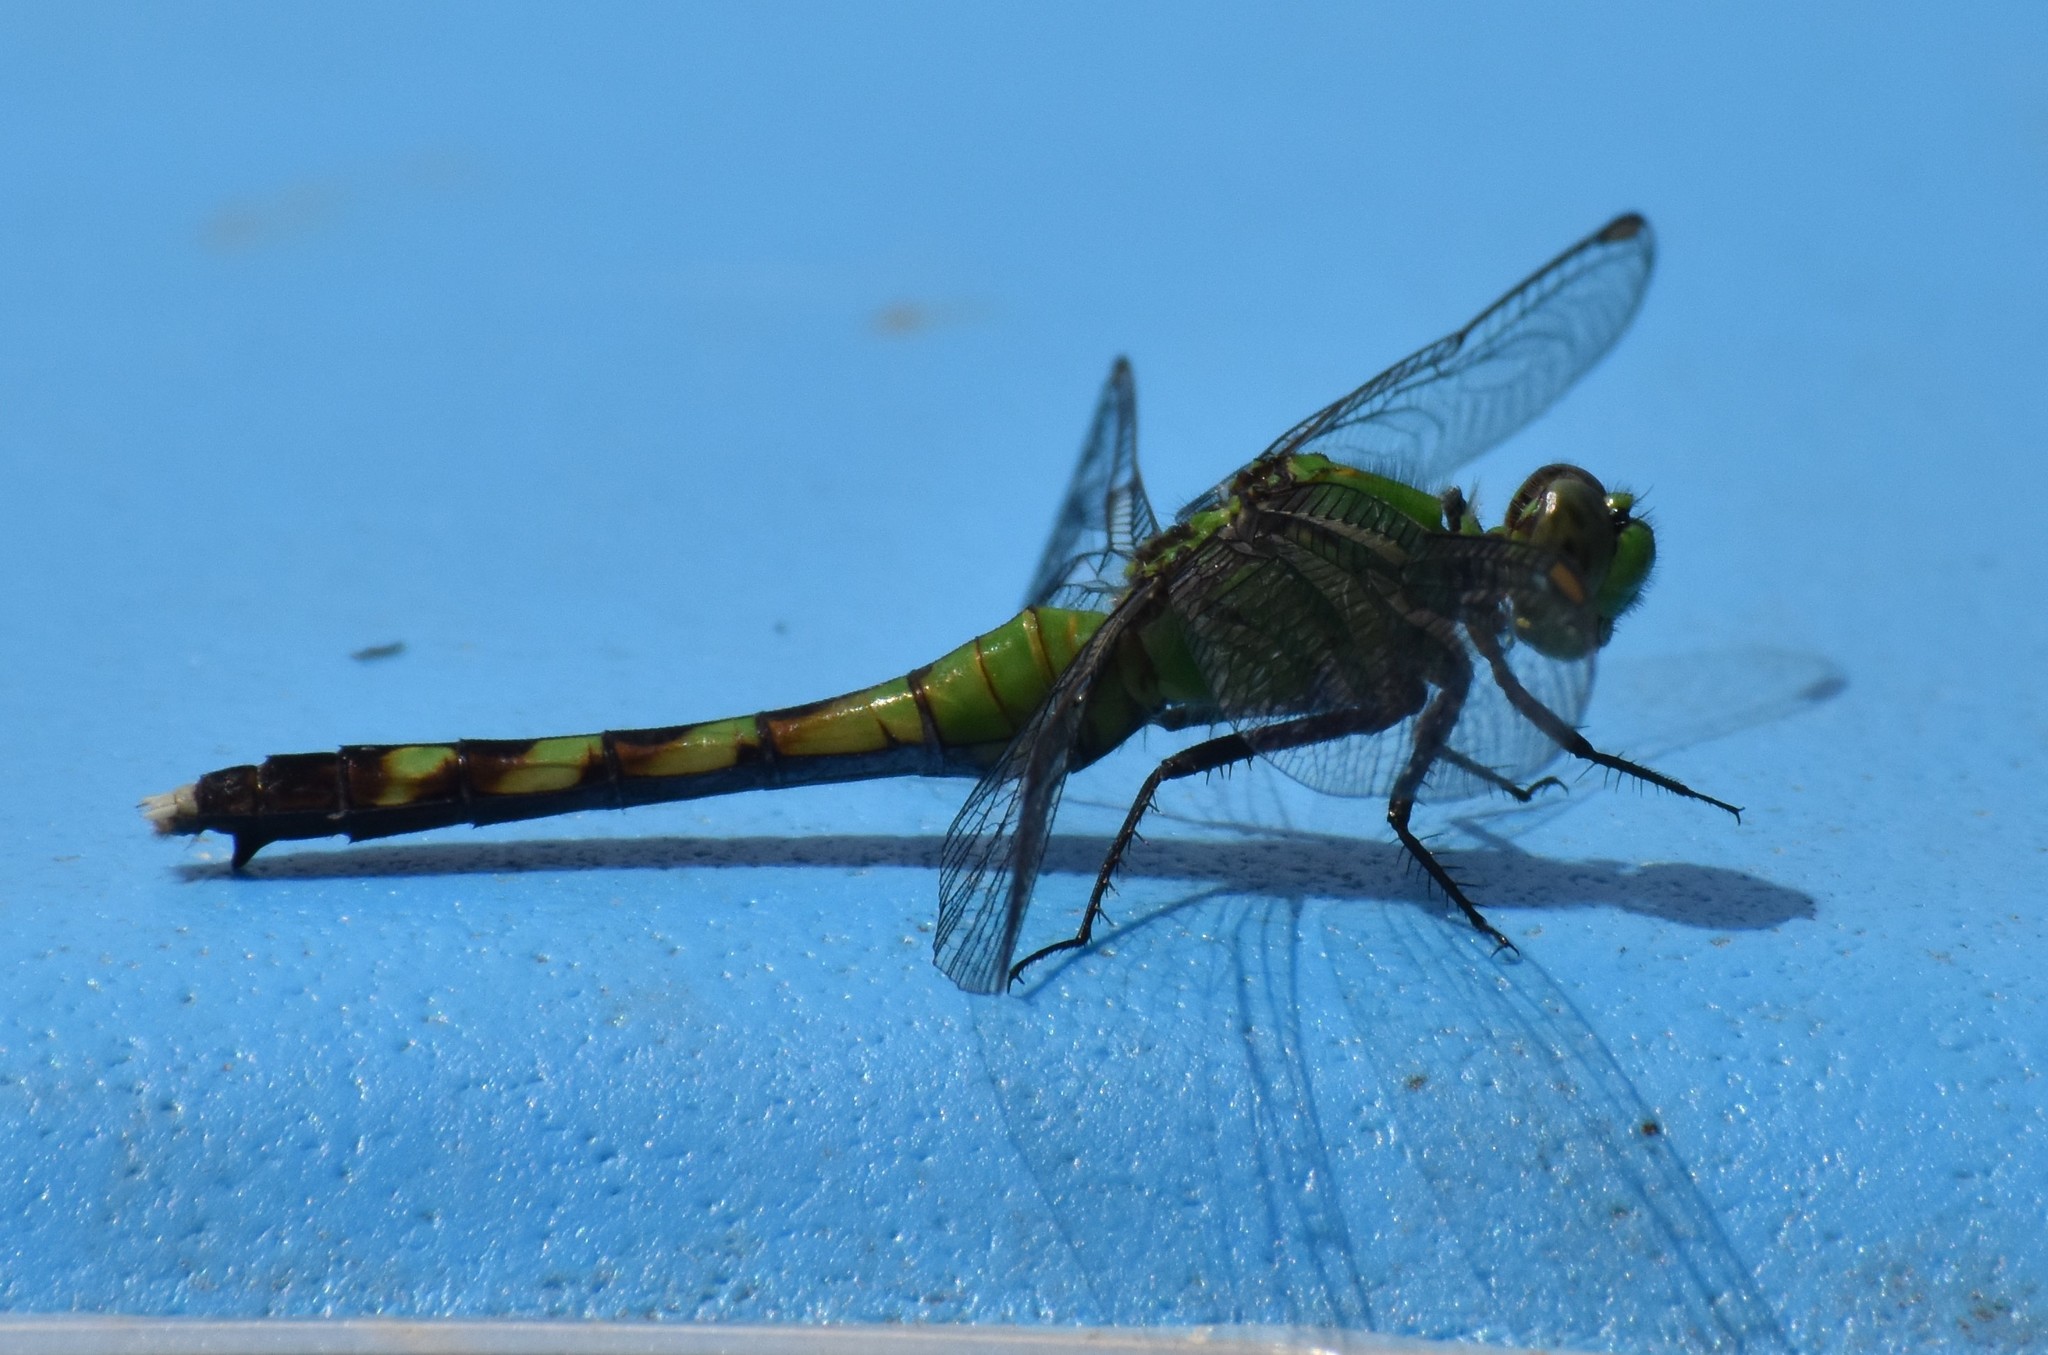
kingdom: Animalia
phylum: Arthropoda
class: Insecta
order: Odonata
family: Libellulidae
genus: Erythemis
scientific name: Erythemis simplicicollis
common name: Eastern pondhawk
